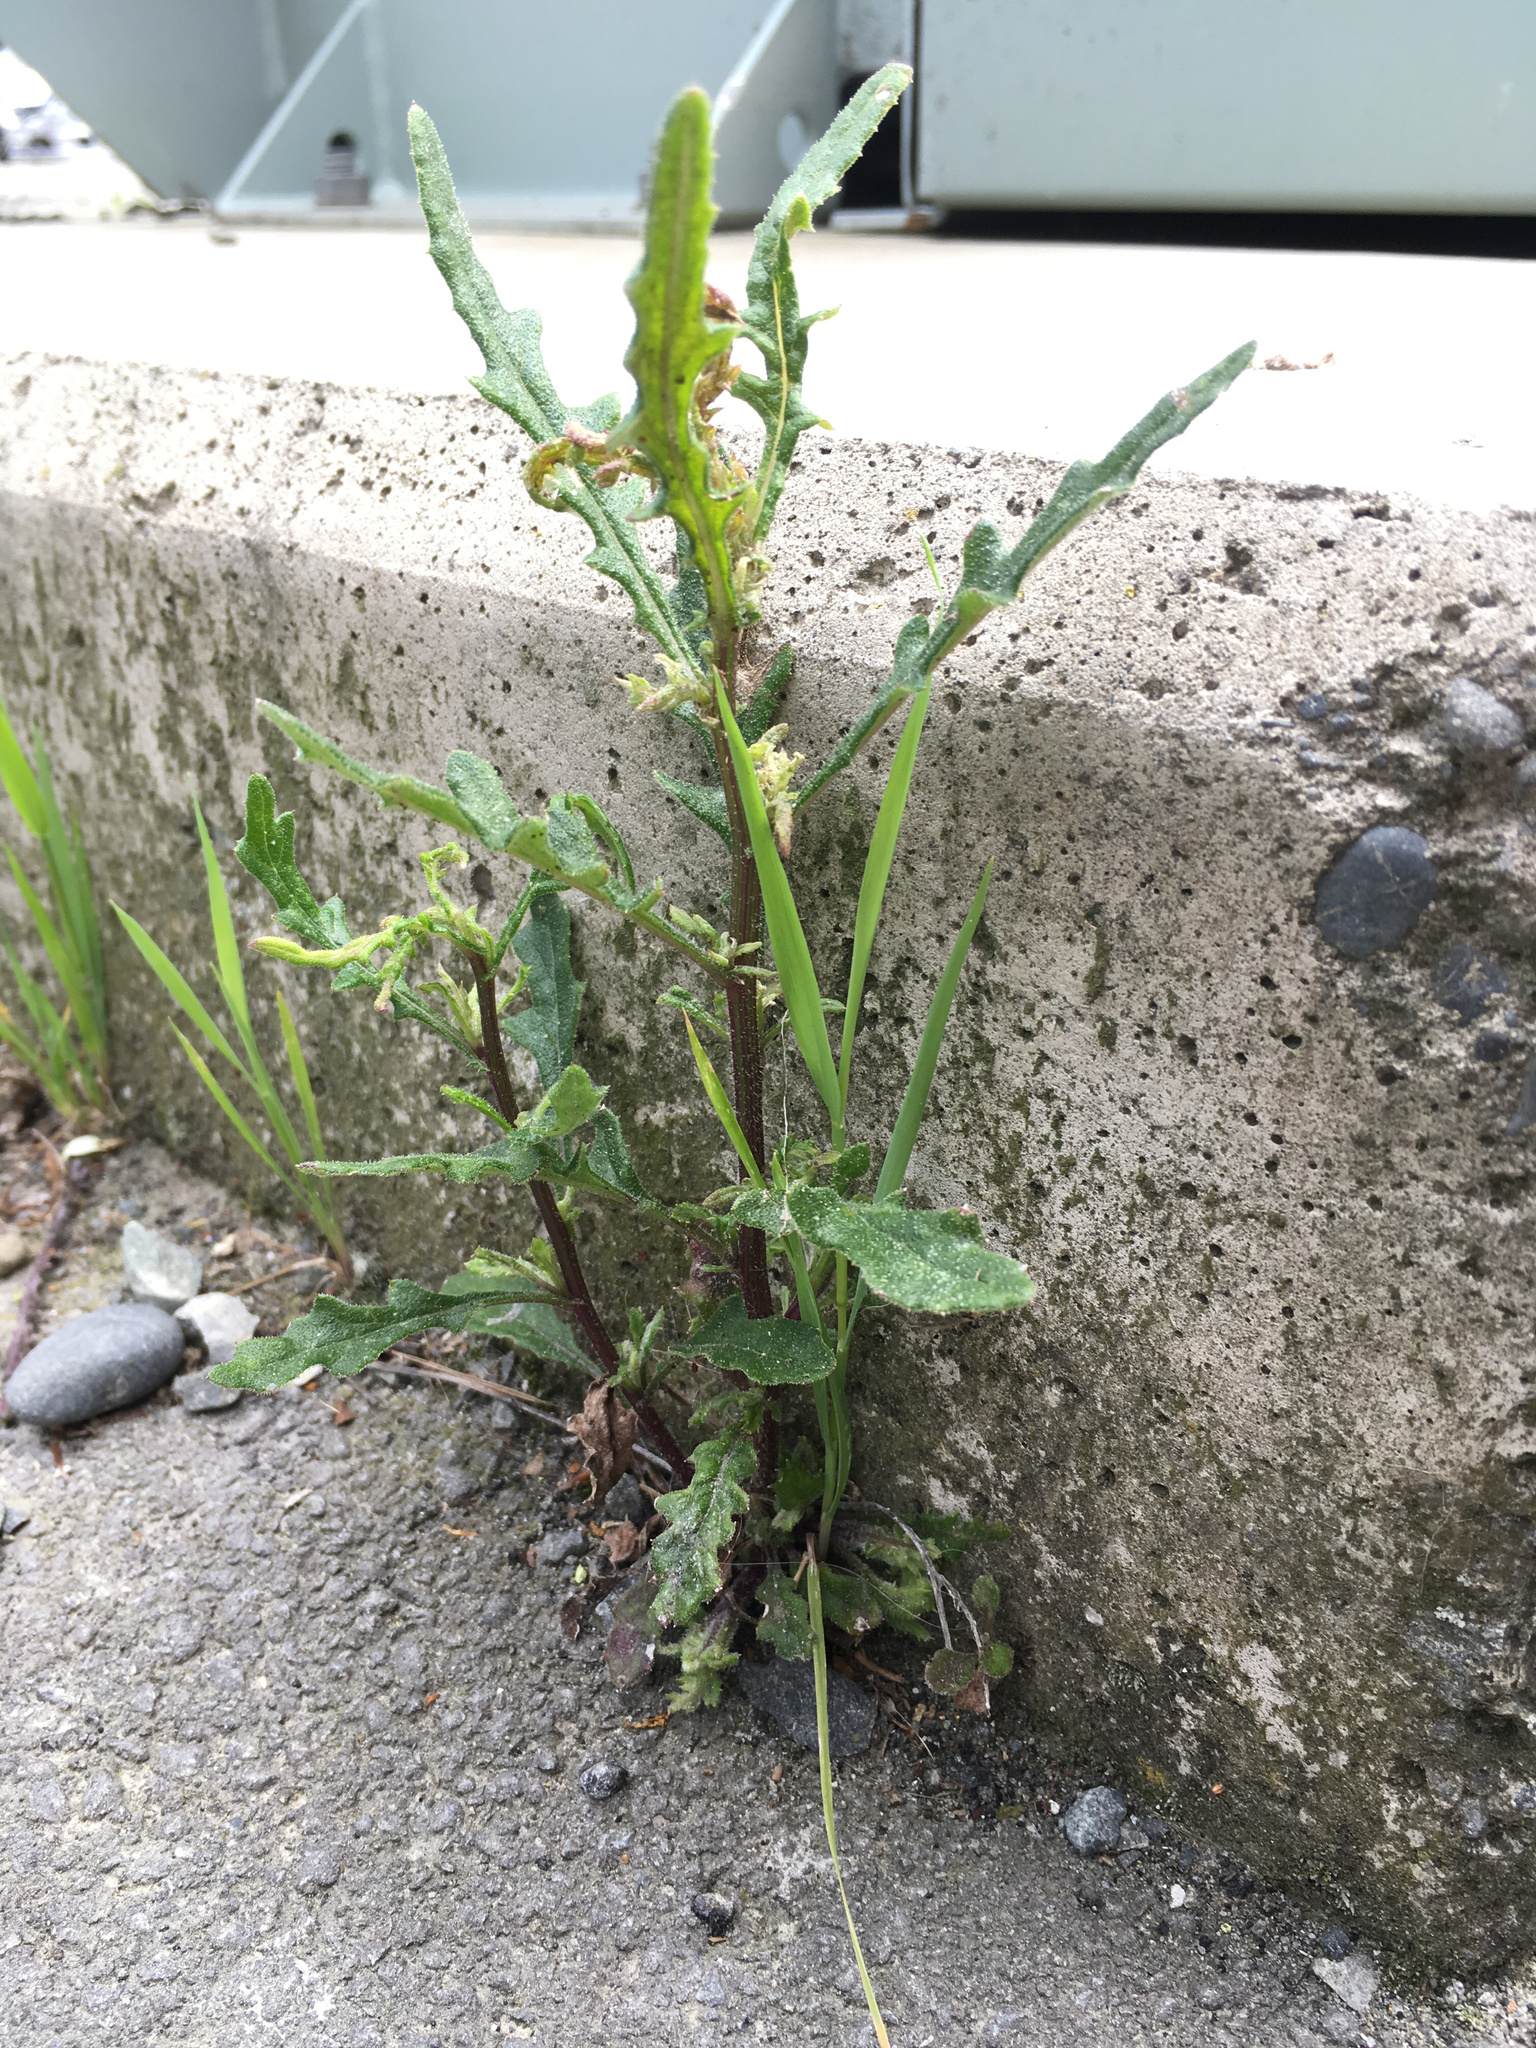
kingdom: Plantae
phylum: Tracheophyta
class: Magnoliopsida
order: Asterales
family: Asteraceae
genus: Senecio
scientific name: Senecio hispidulus
